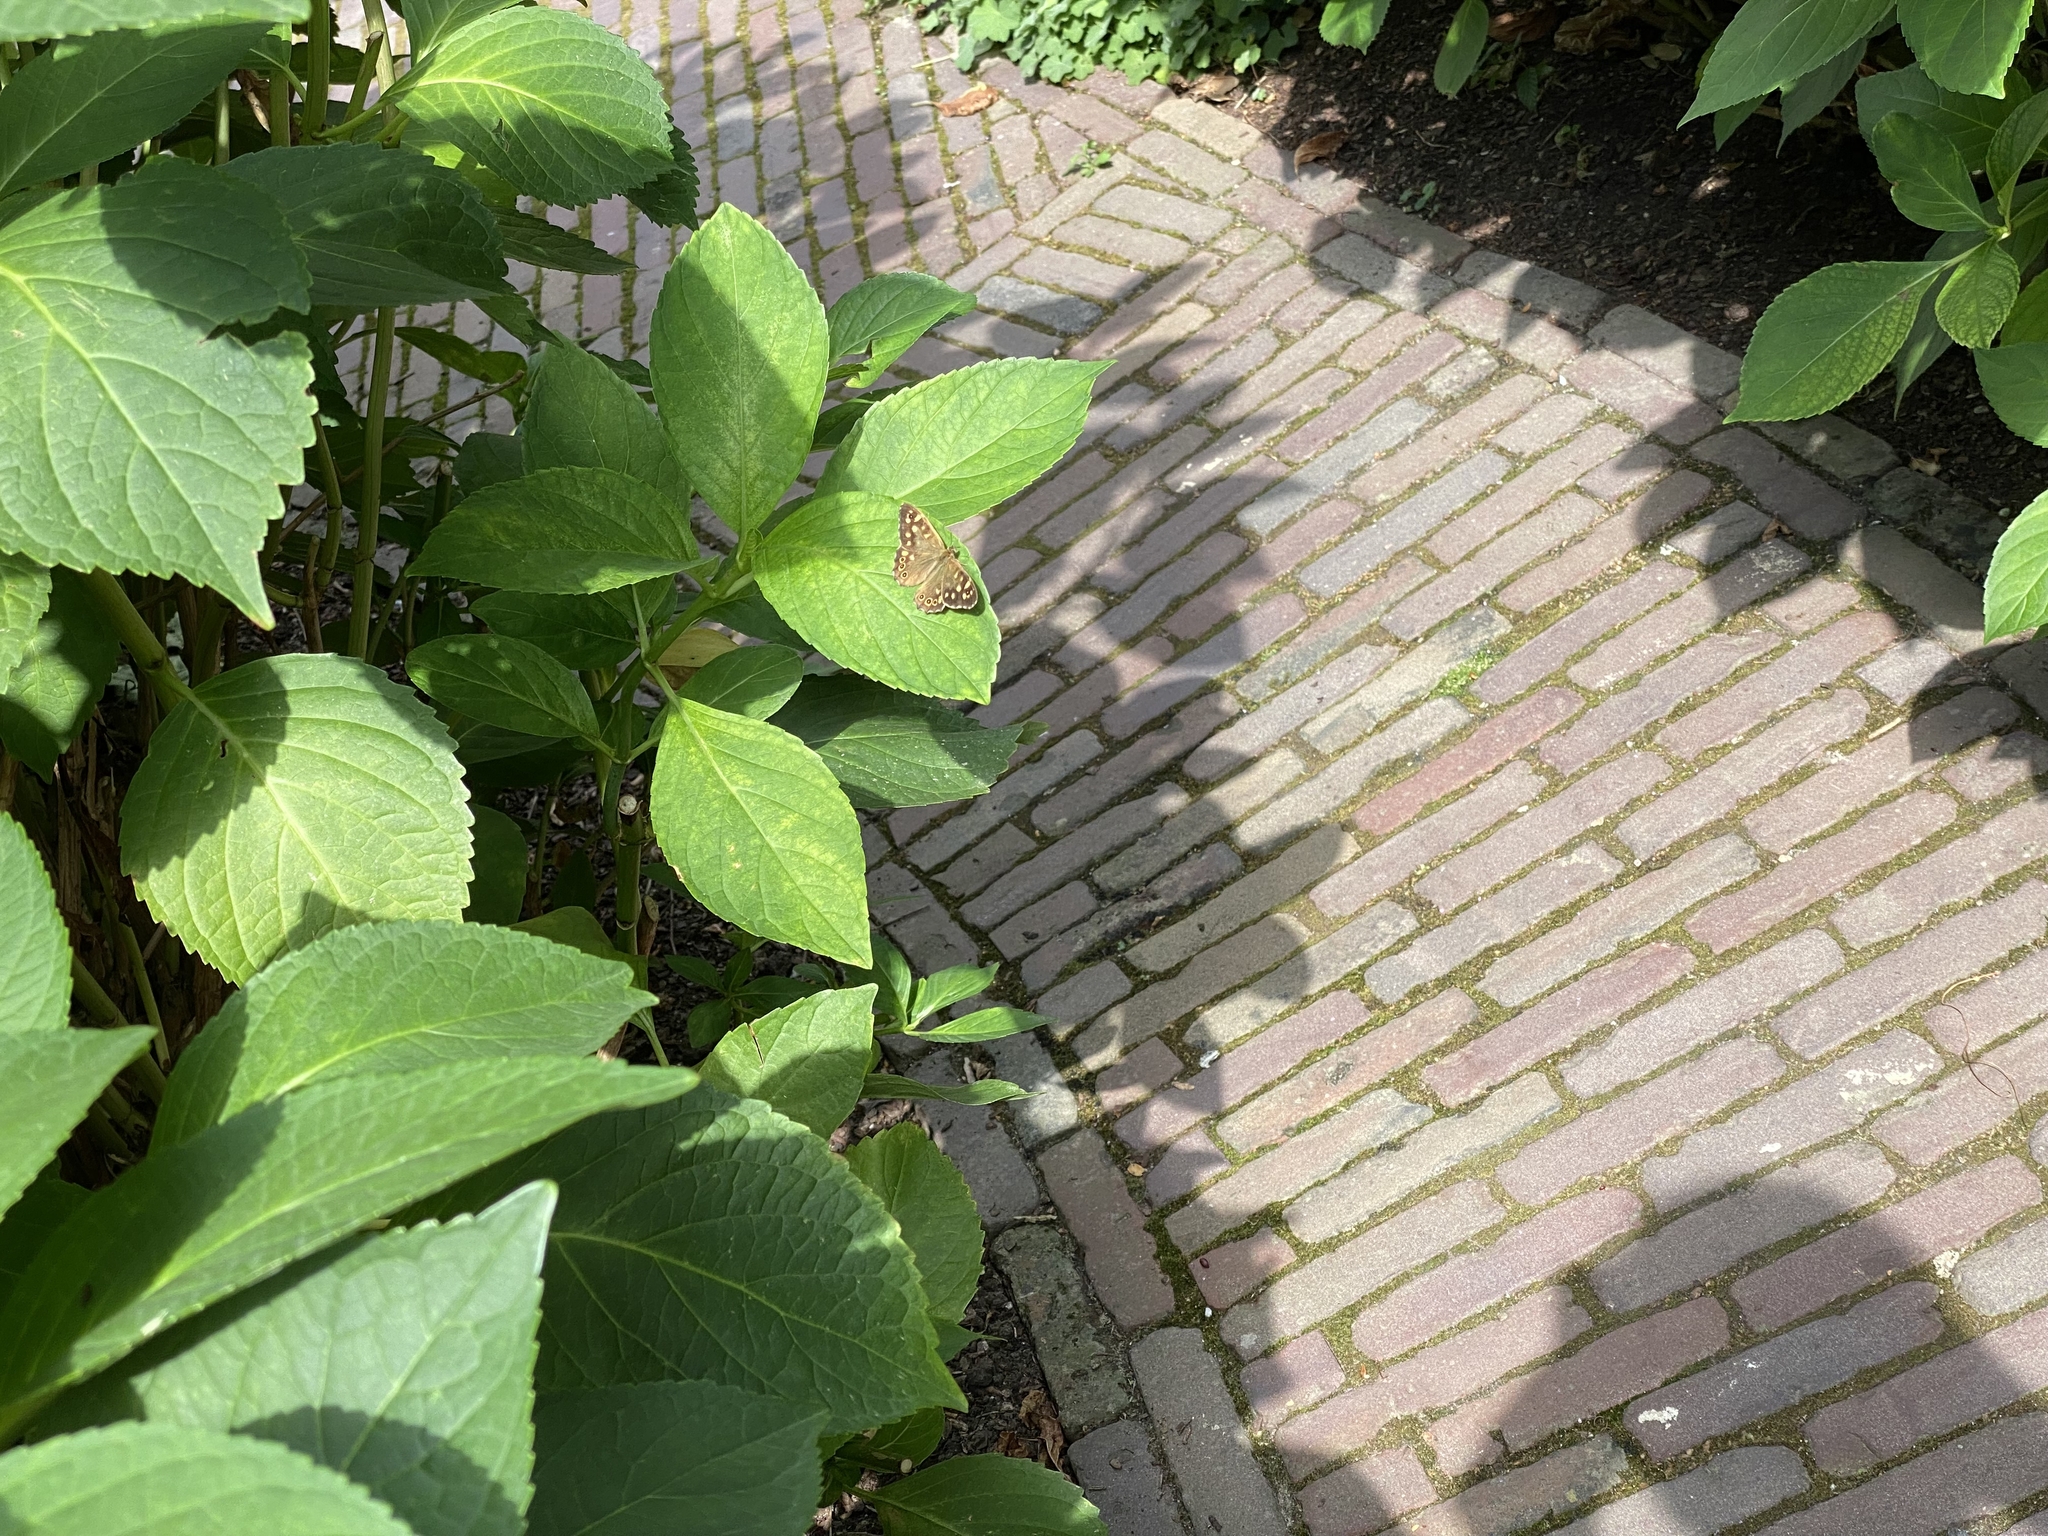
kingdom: Animalia
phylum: Arthropoda
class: Insecta
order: Lepidoptera
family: Nymphalidae
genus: Pararge
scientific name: Pararge aegeria
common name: Speckled wood
